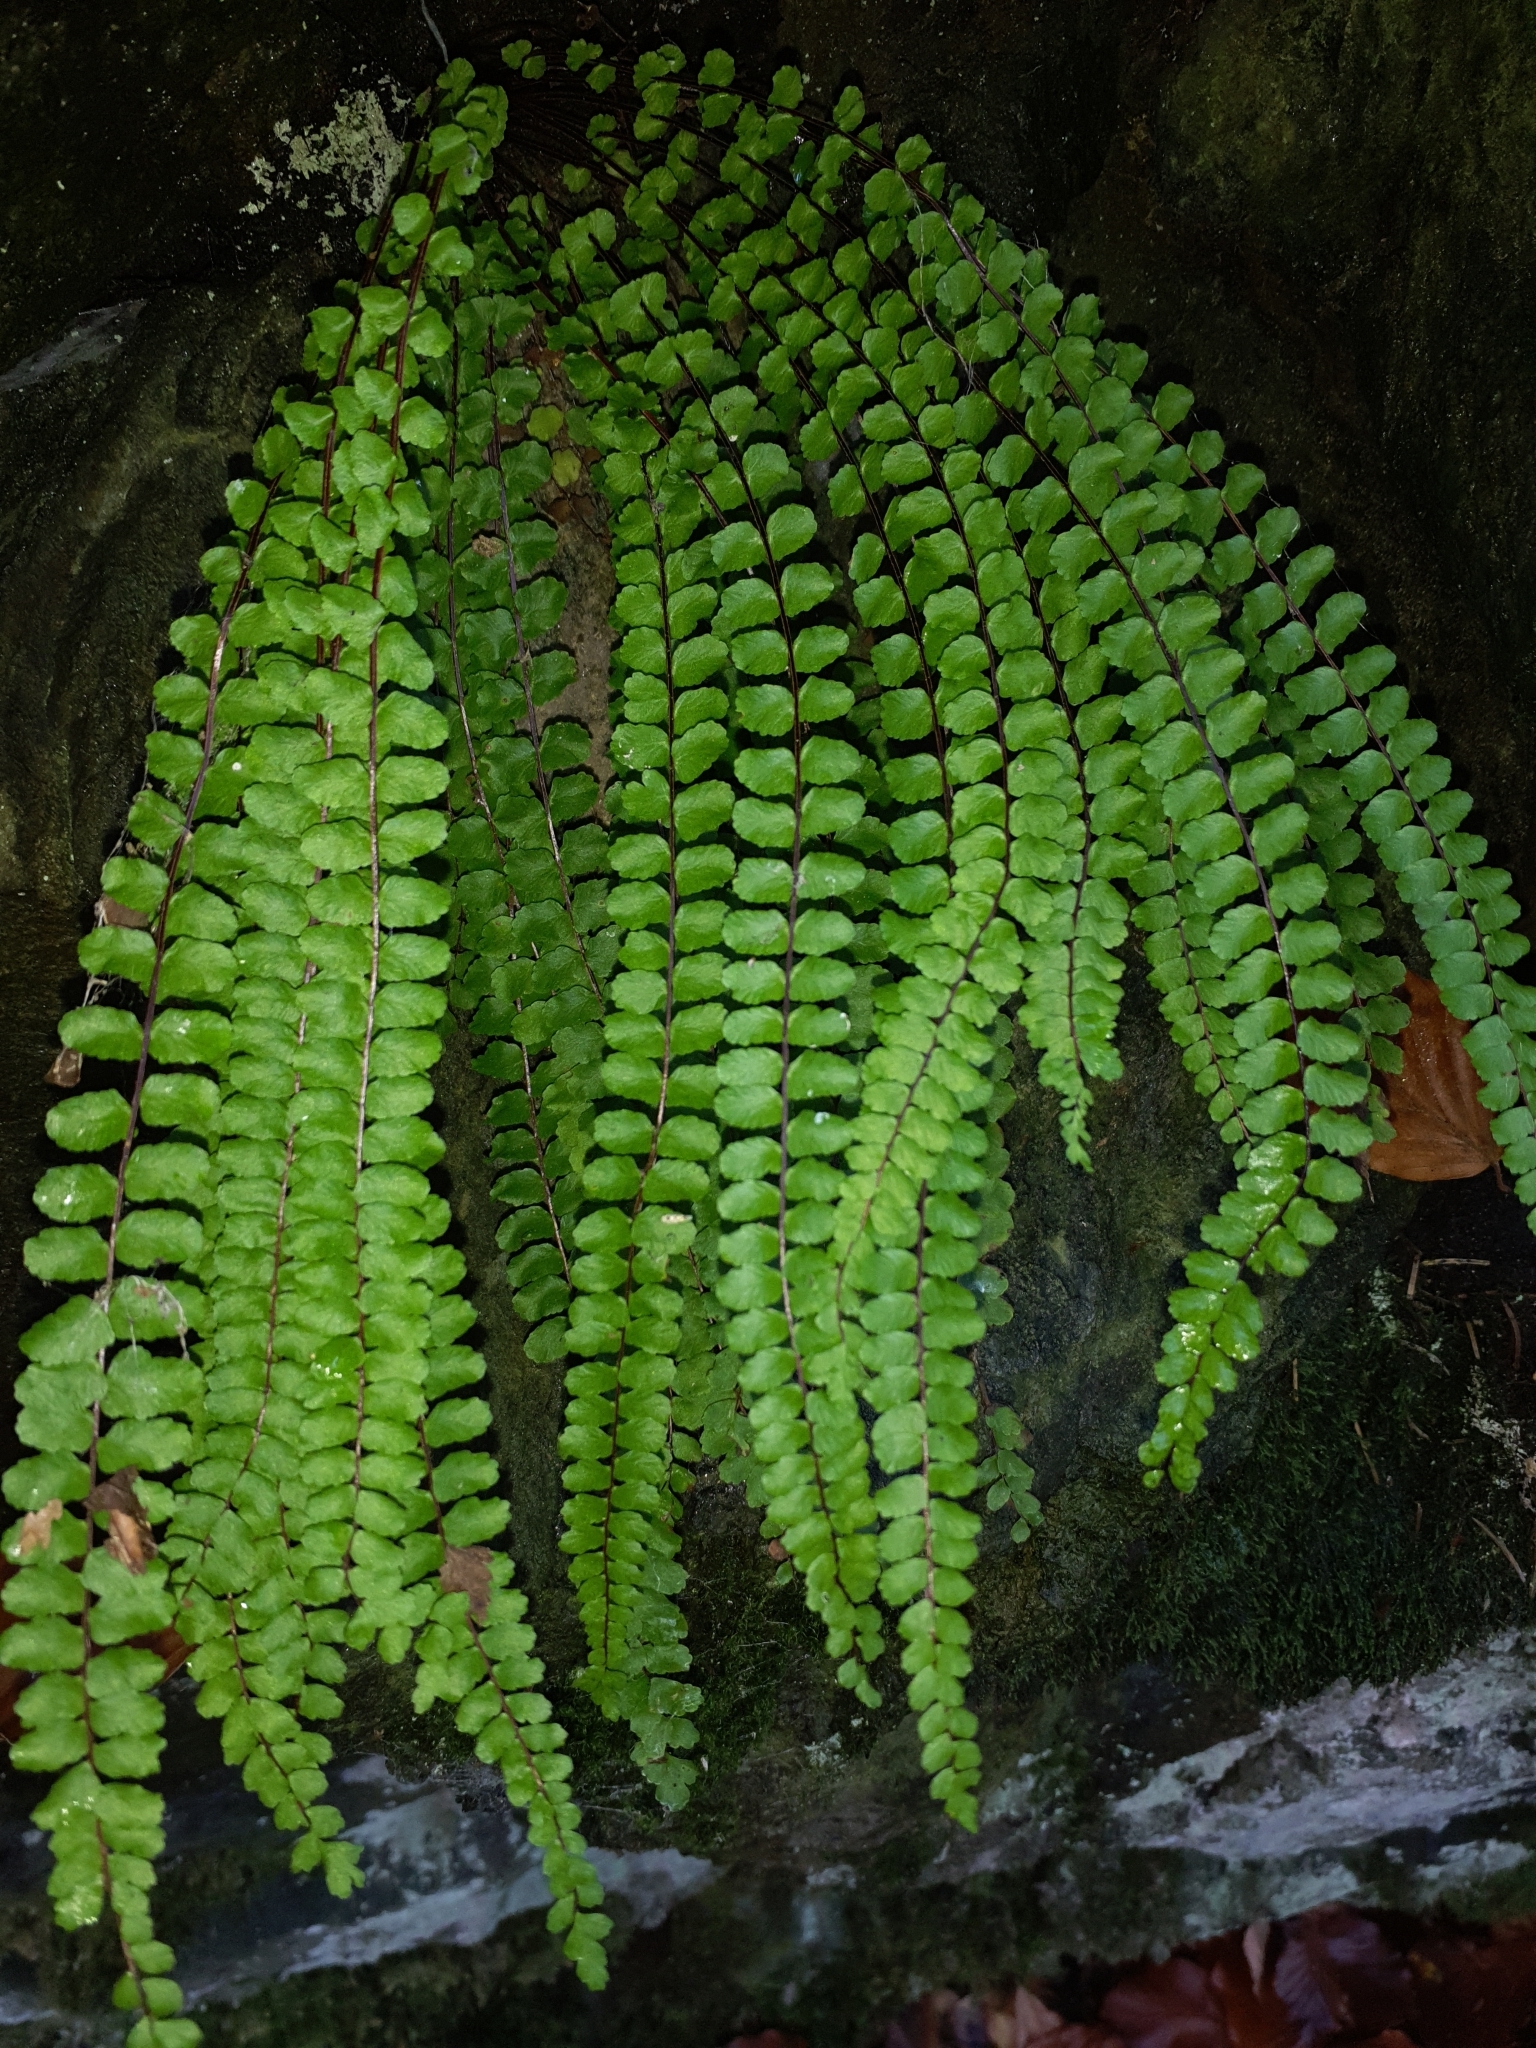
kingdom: Plantae
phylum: Tracheophyta
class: Polypodiopsida
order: Polypodiales
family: Aspleniaceae
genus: Asplenium
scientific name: Asplenium quadrivalens
